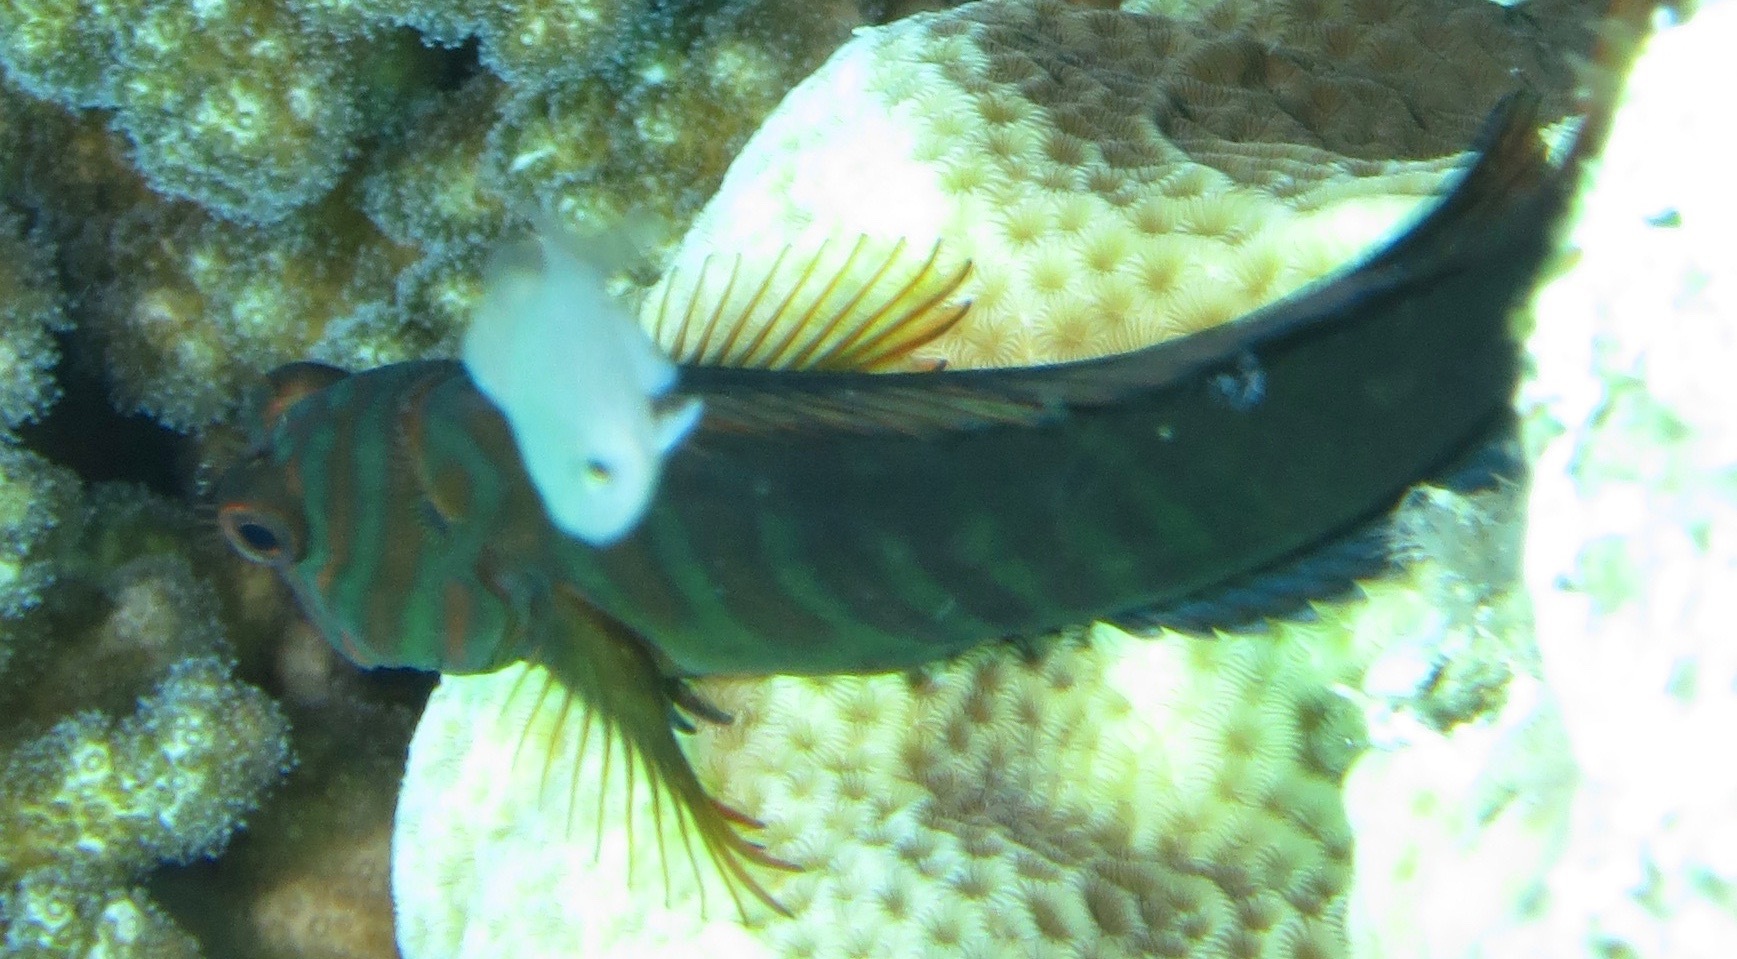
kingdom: Animalia
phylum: Chordata
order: Perciformes
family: Blenniidae
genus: Cirripectes
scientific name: Cirripectes castaneus
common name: Chestnut blenny
